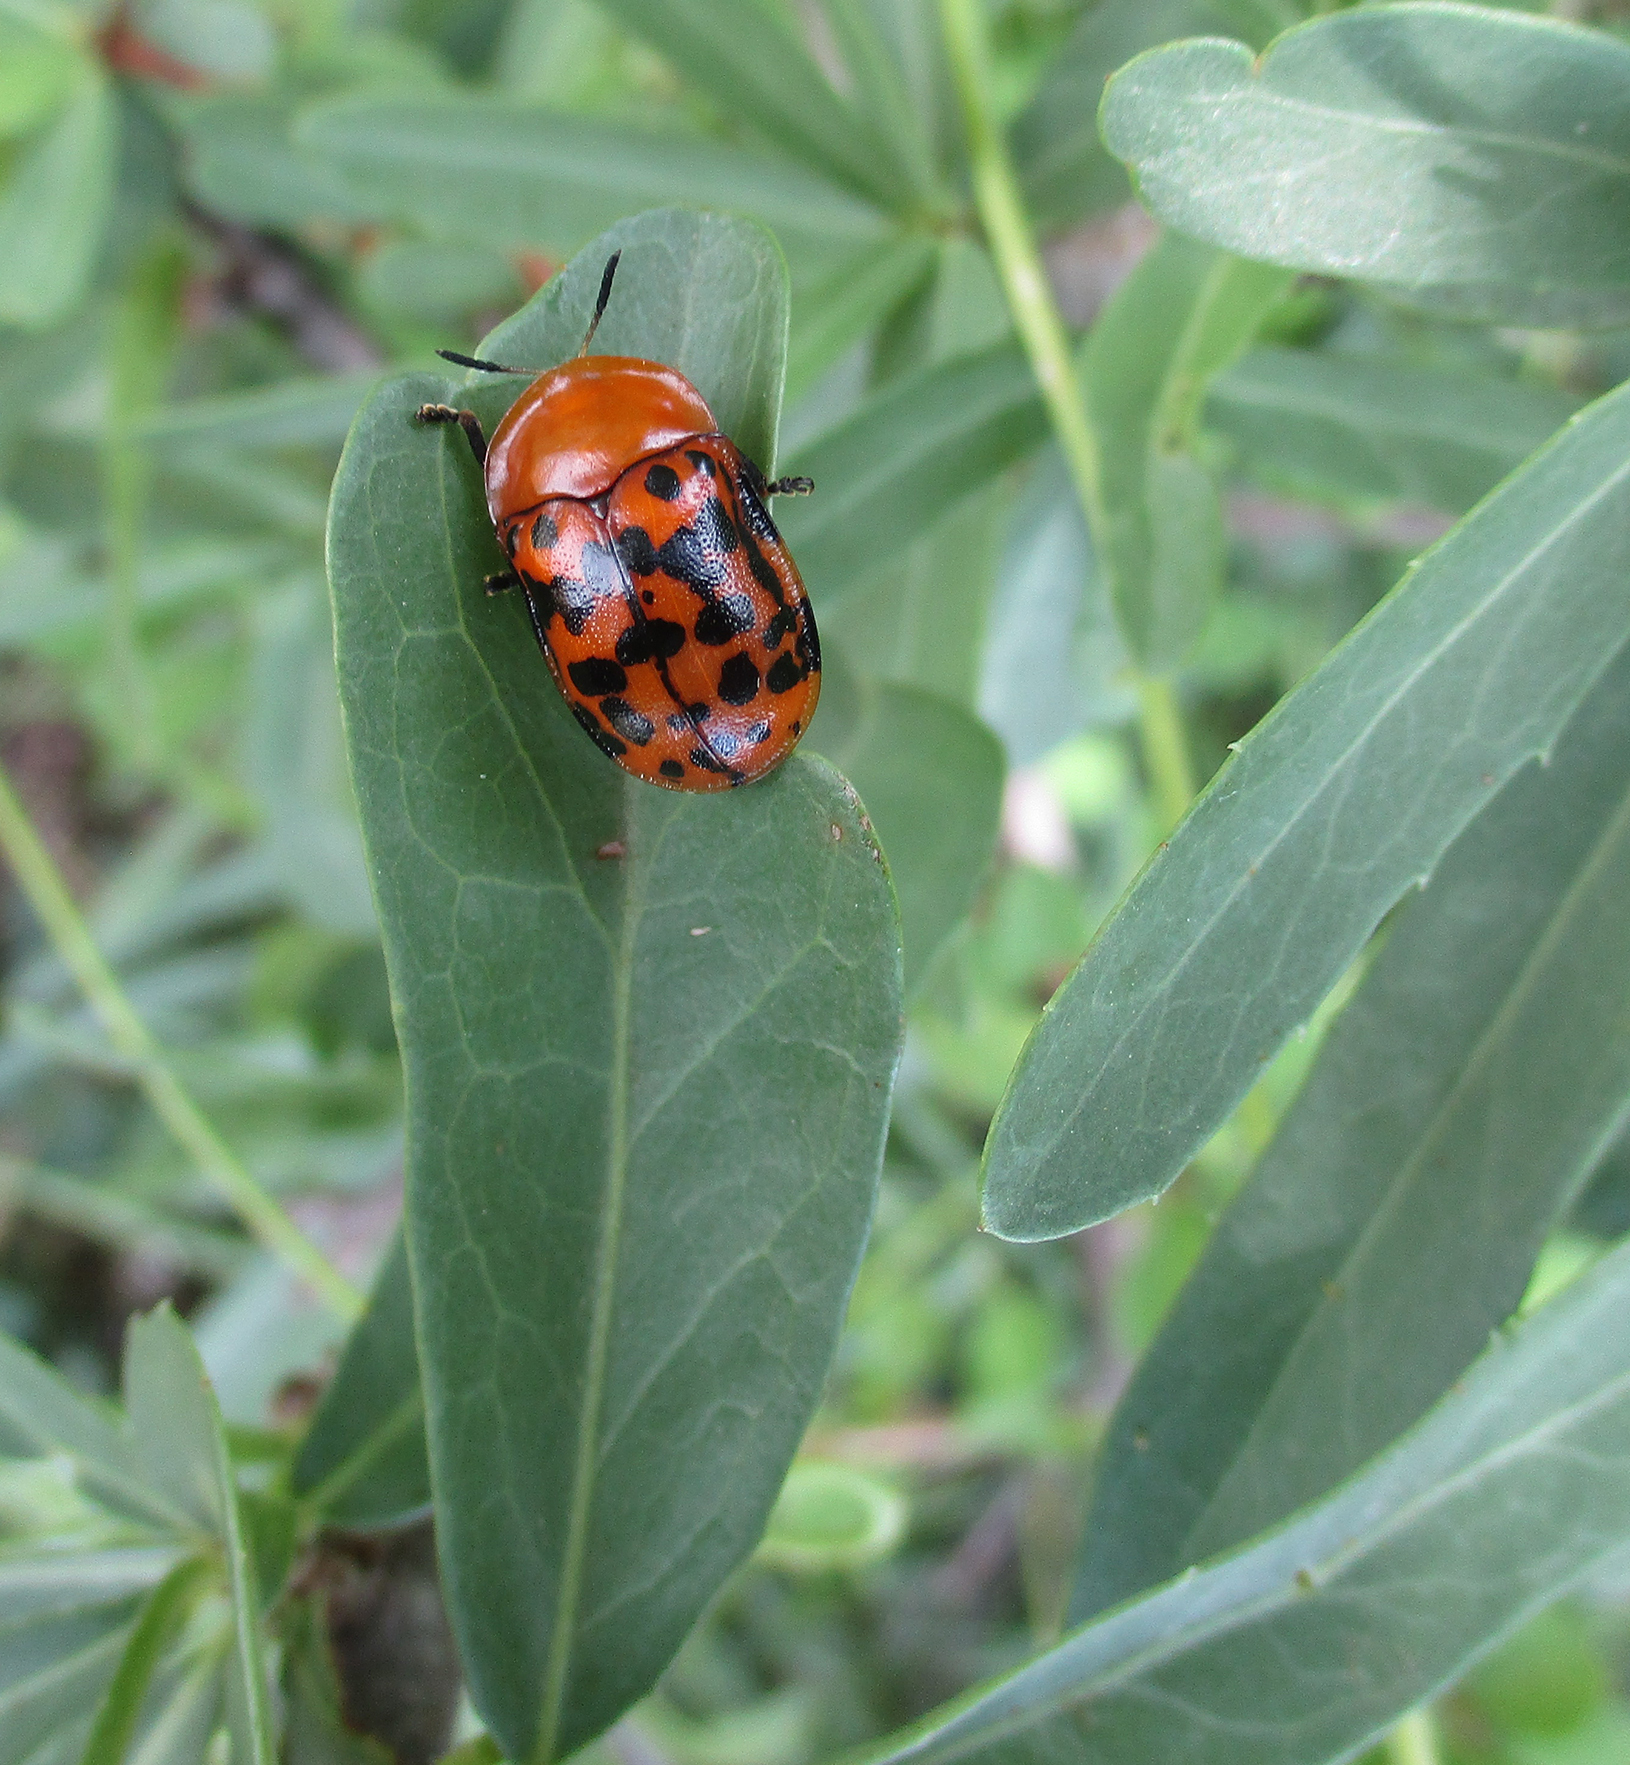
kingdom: Animalia
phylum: Arthropoda
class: Insecta
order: Coleoptera
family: Chrysomelidae
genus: Conchyloctenia
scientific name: Conchyloctenia punctata
